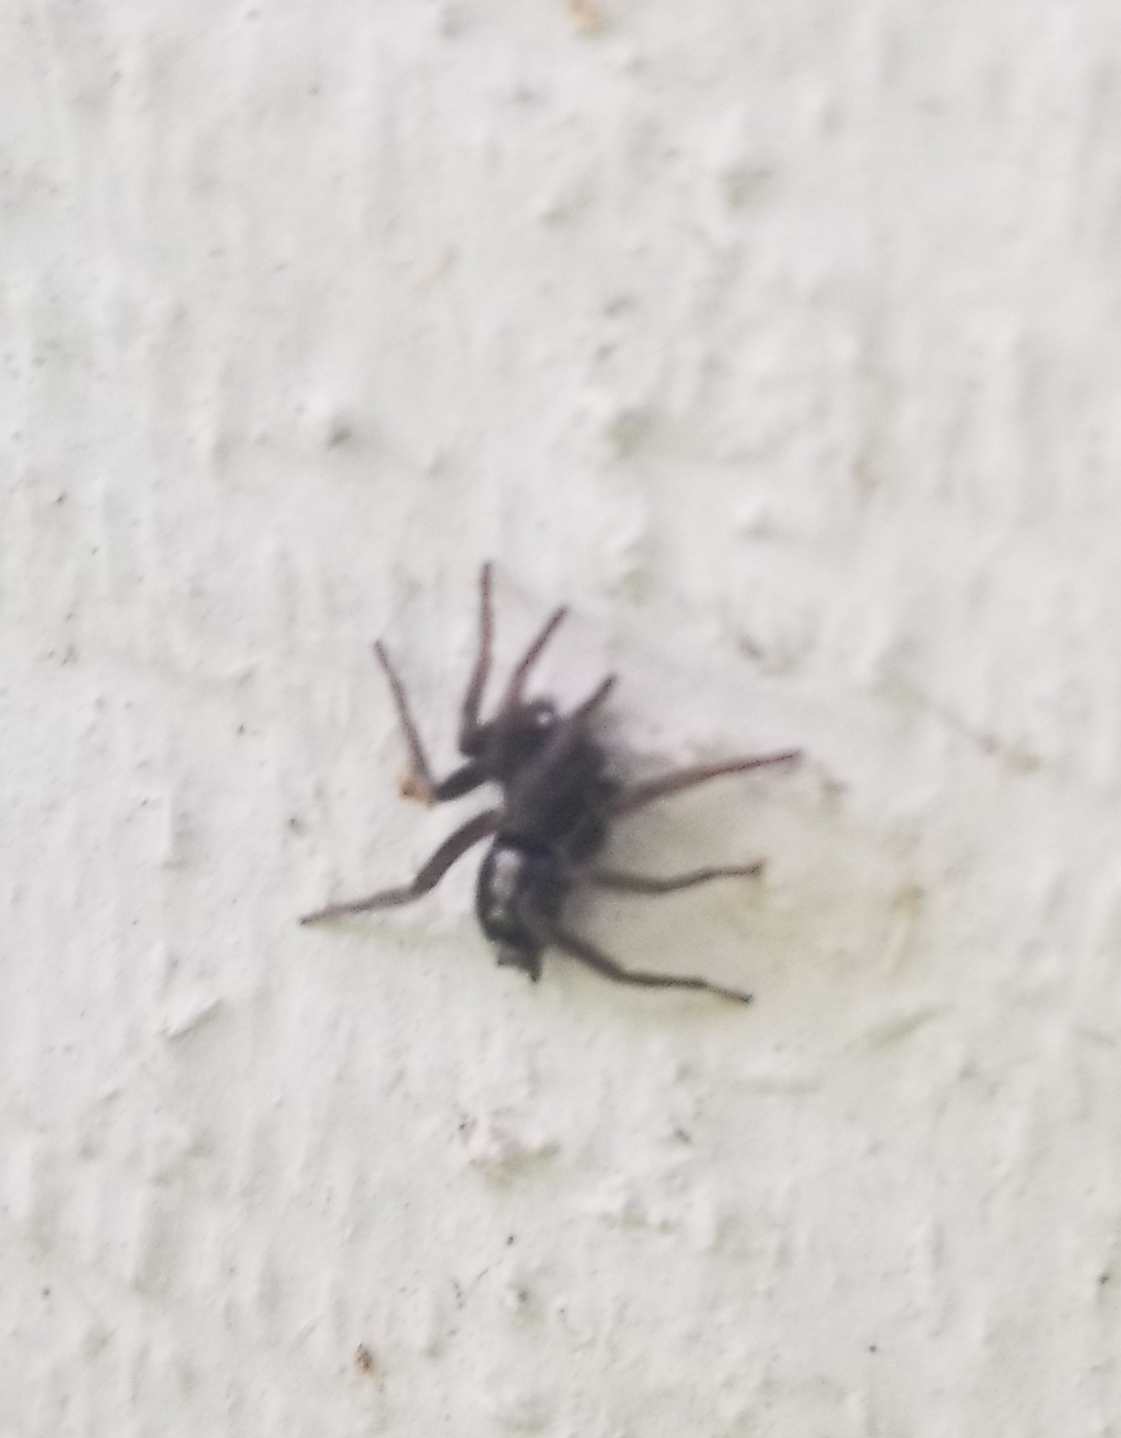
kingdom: Animalia
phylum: Arthropoda
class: Arachnida
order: Araneae
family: Gnaphosidae
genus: Herpyllus
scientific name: Herpyllus ecclesiasticus
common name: Eastern parson spider
